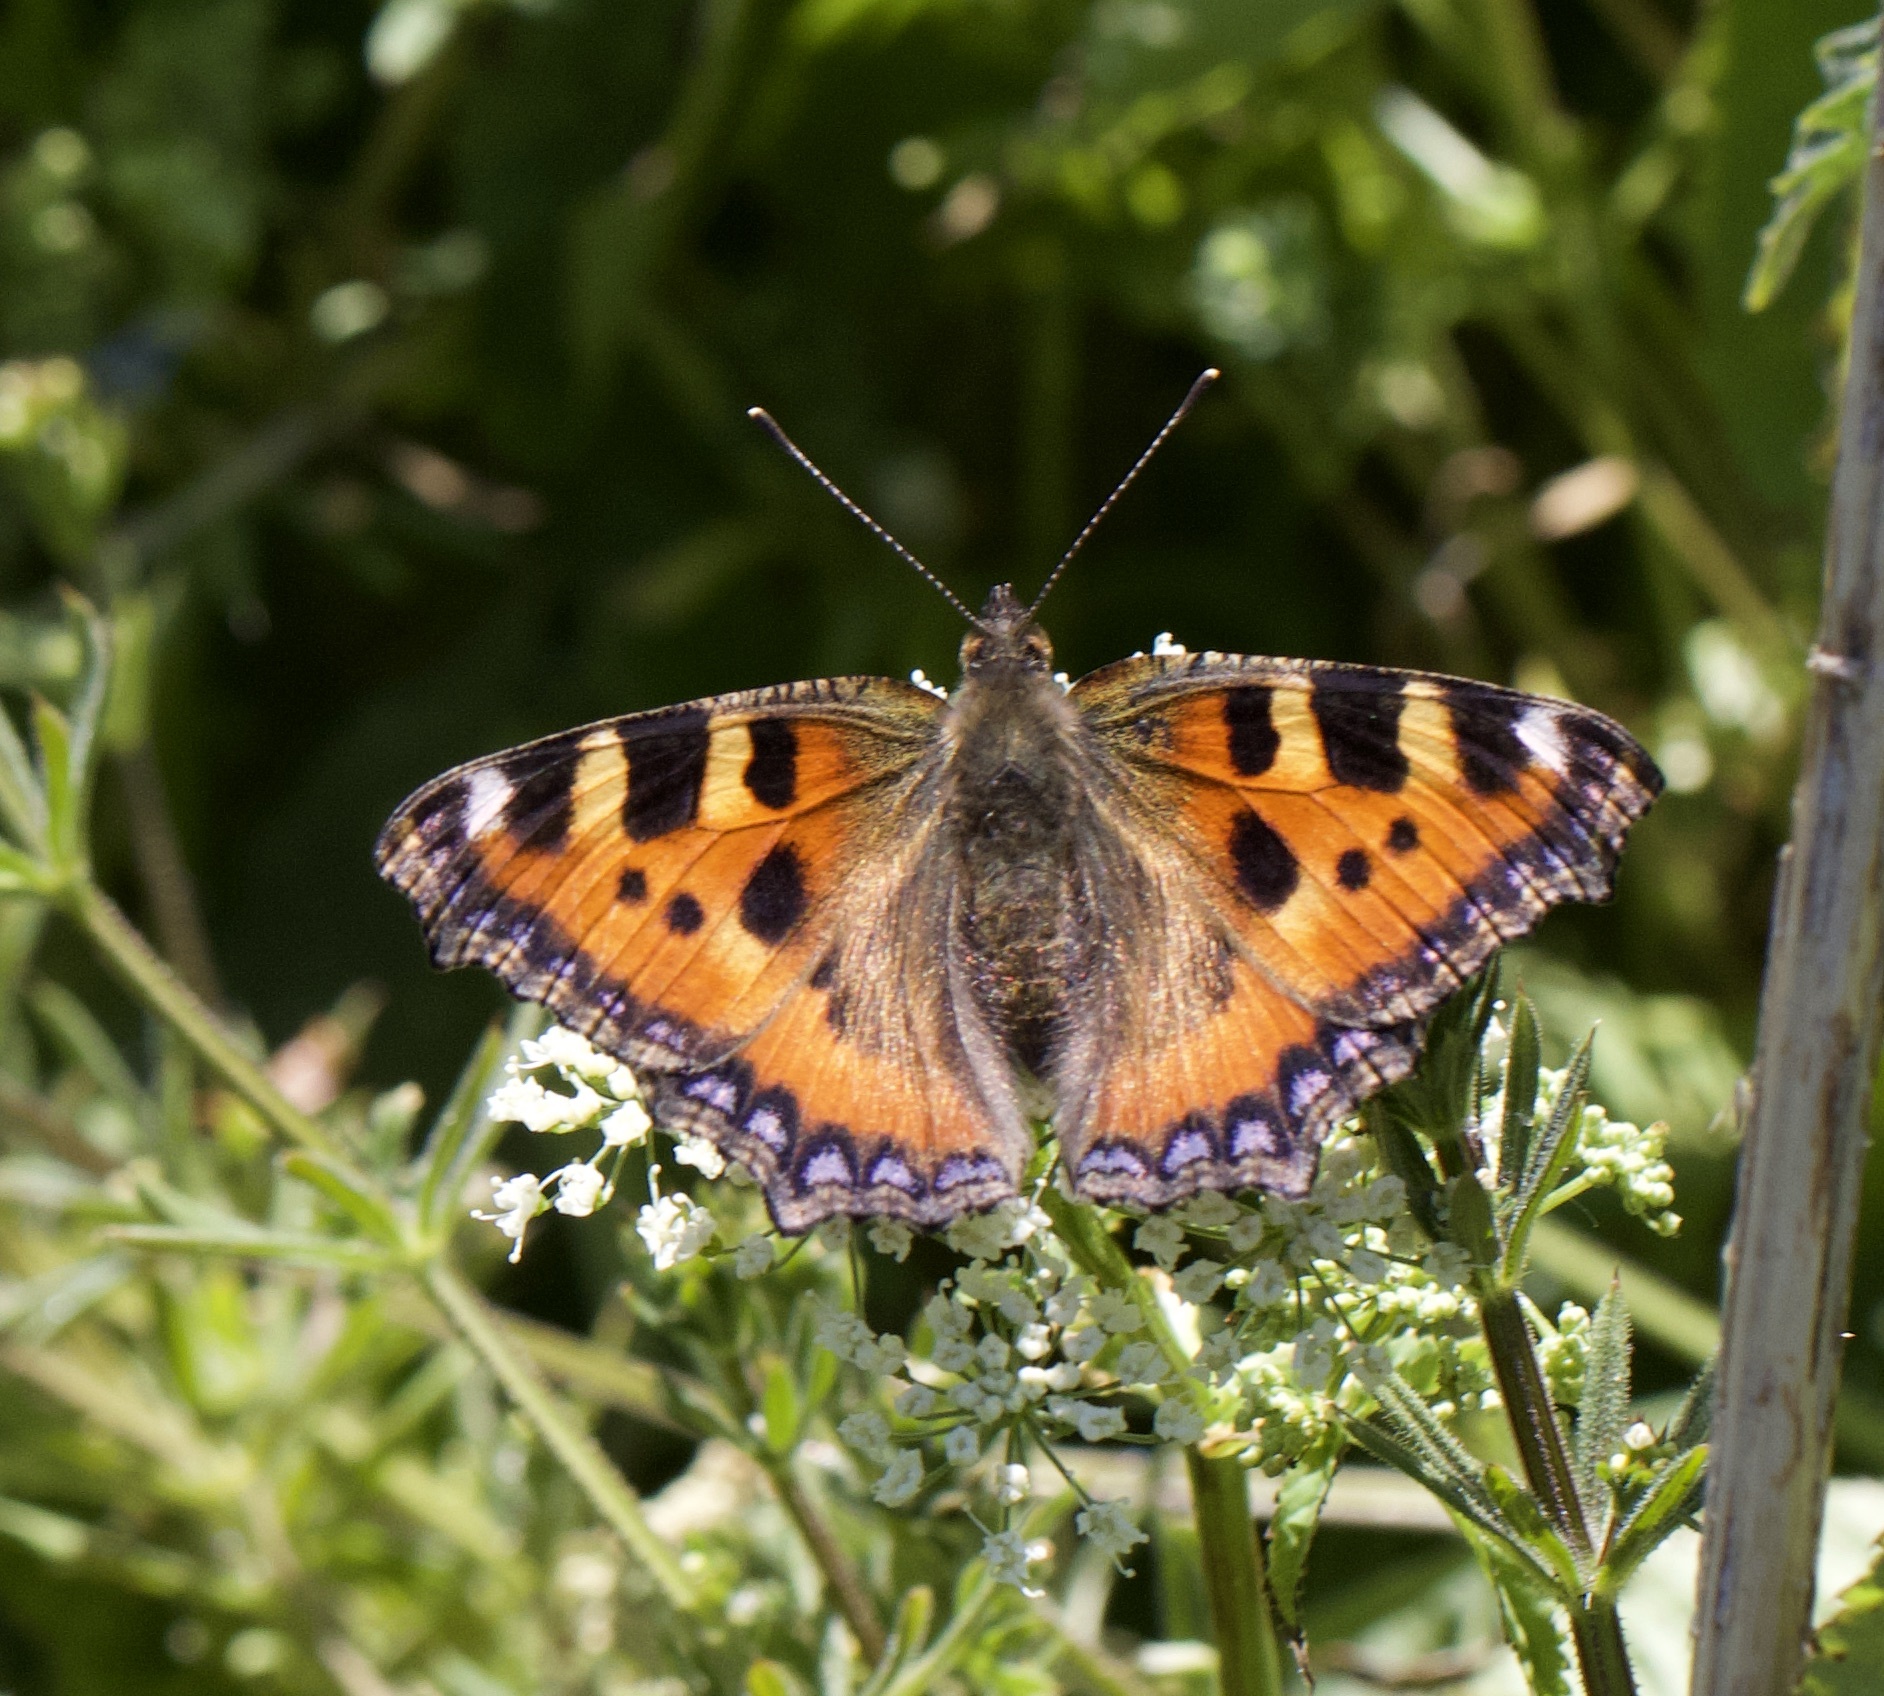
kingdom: Animalia
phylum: Arthropoda
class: Insecta
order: Lepidoptera
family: Nymphalidae
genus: Aglais
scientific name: Aglais urticae
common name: Small tortoiseshell
